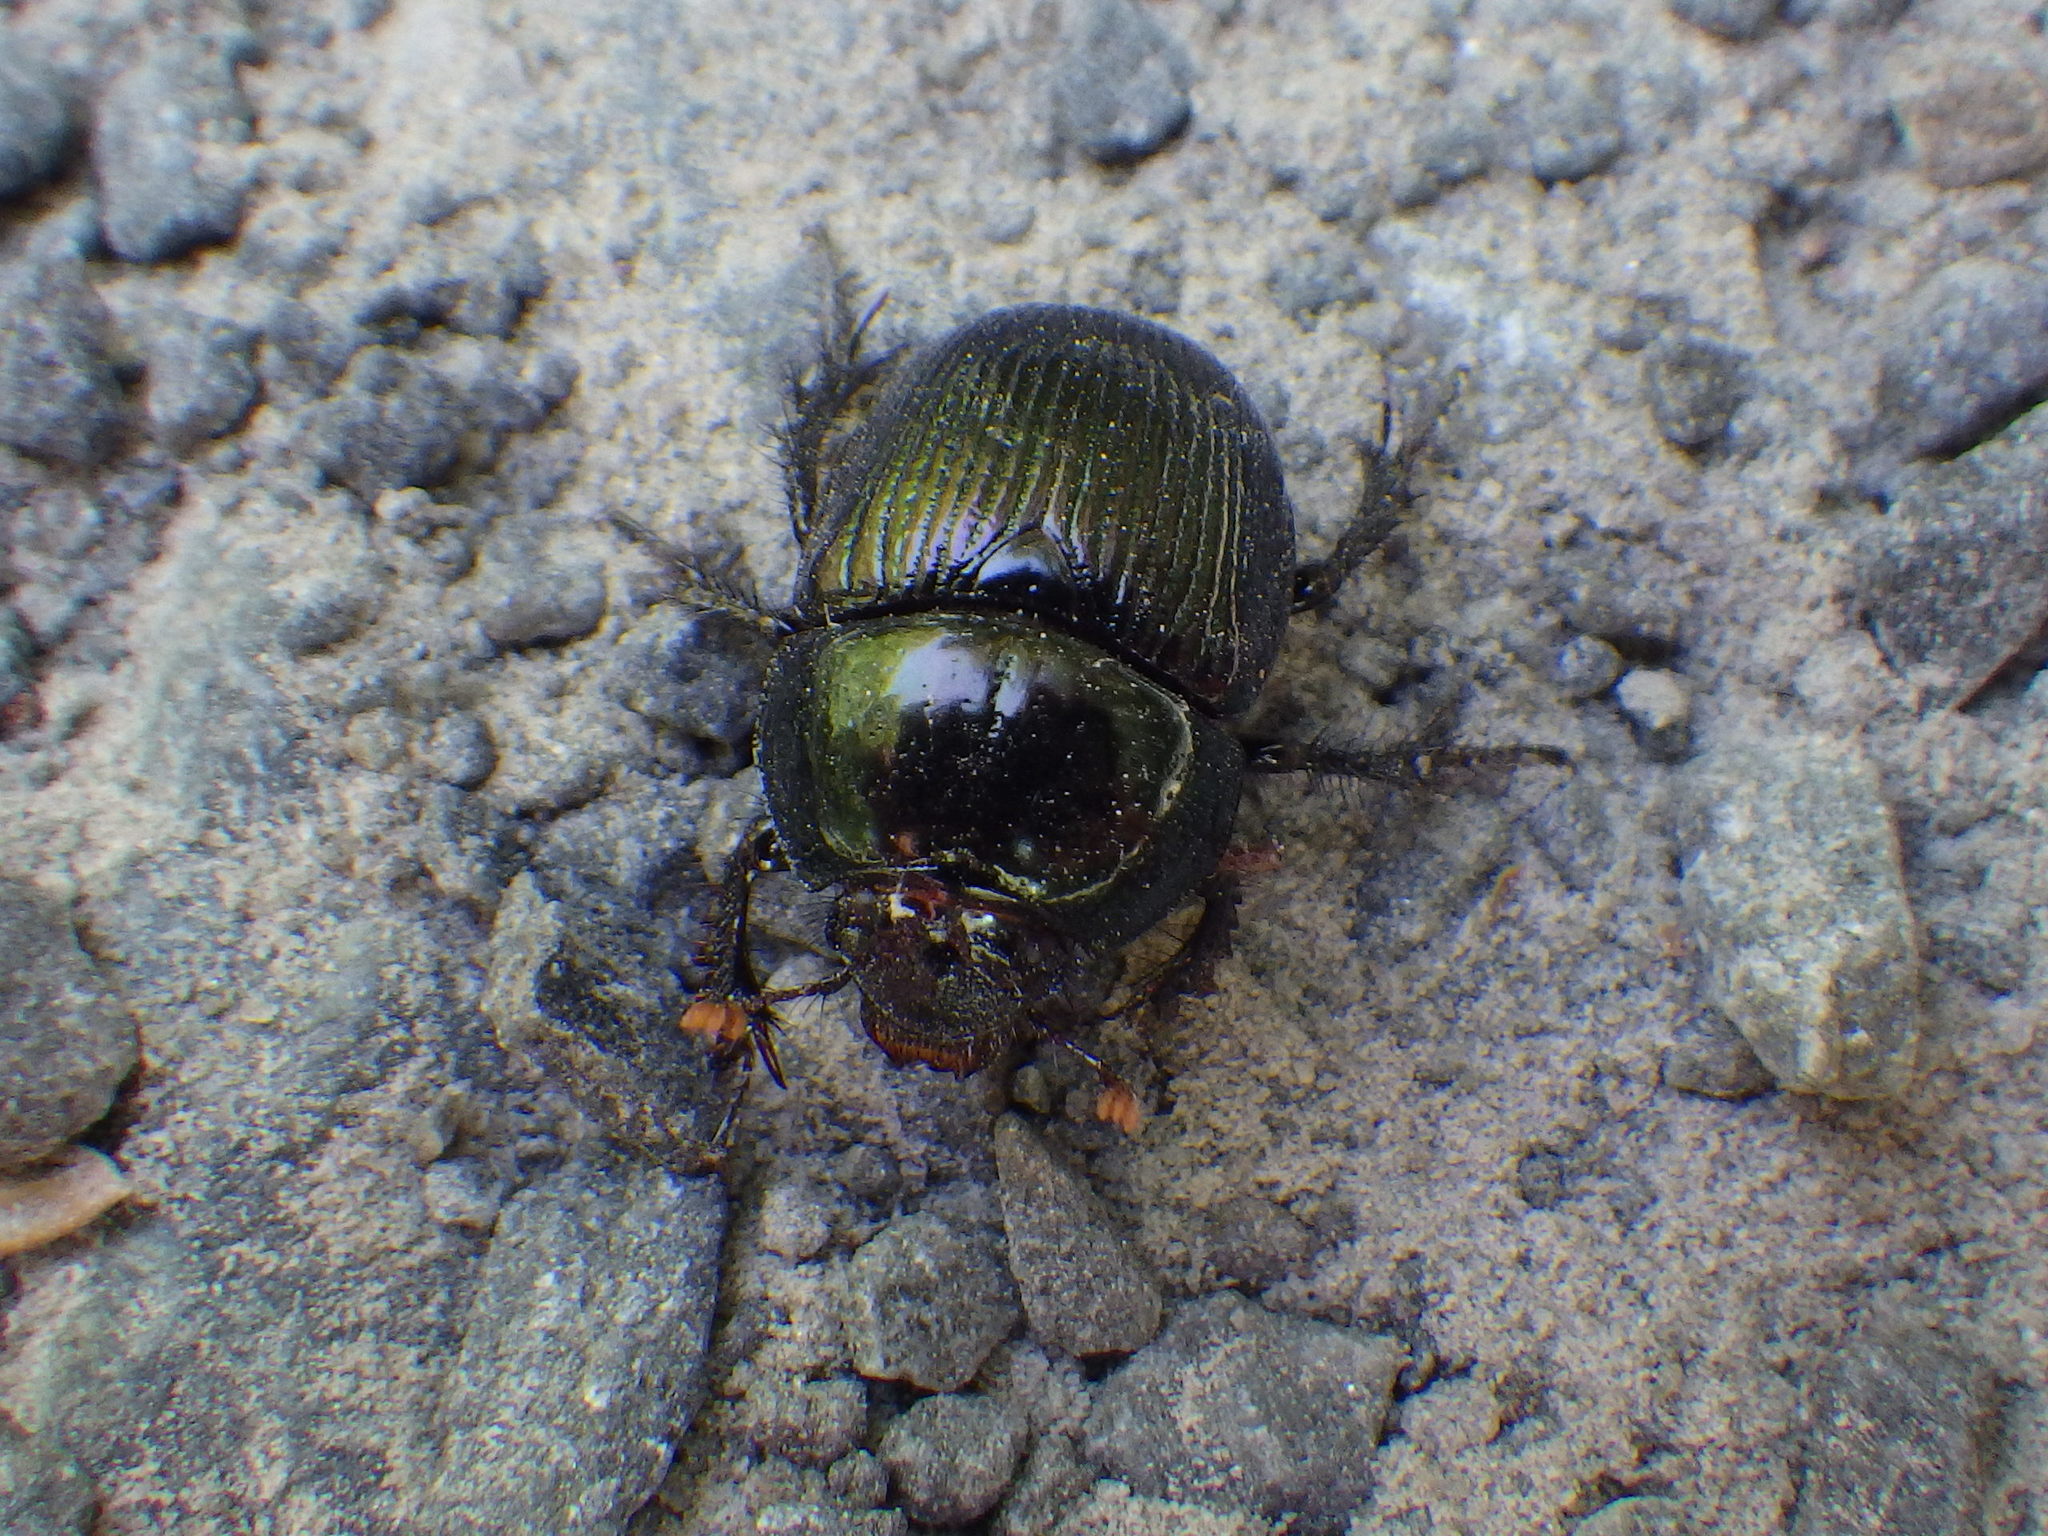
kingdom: Animalia
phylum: Arthropoda
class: Insecta
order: Coleoptera
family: Geotrupidae
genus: Anoplotrupes
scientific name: Anoplotrupes balyi
